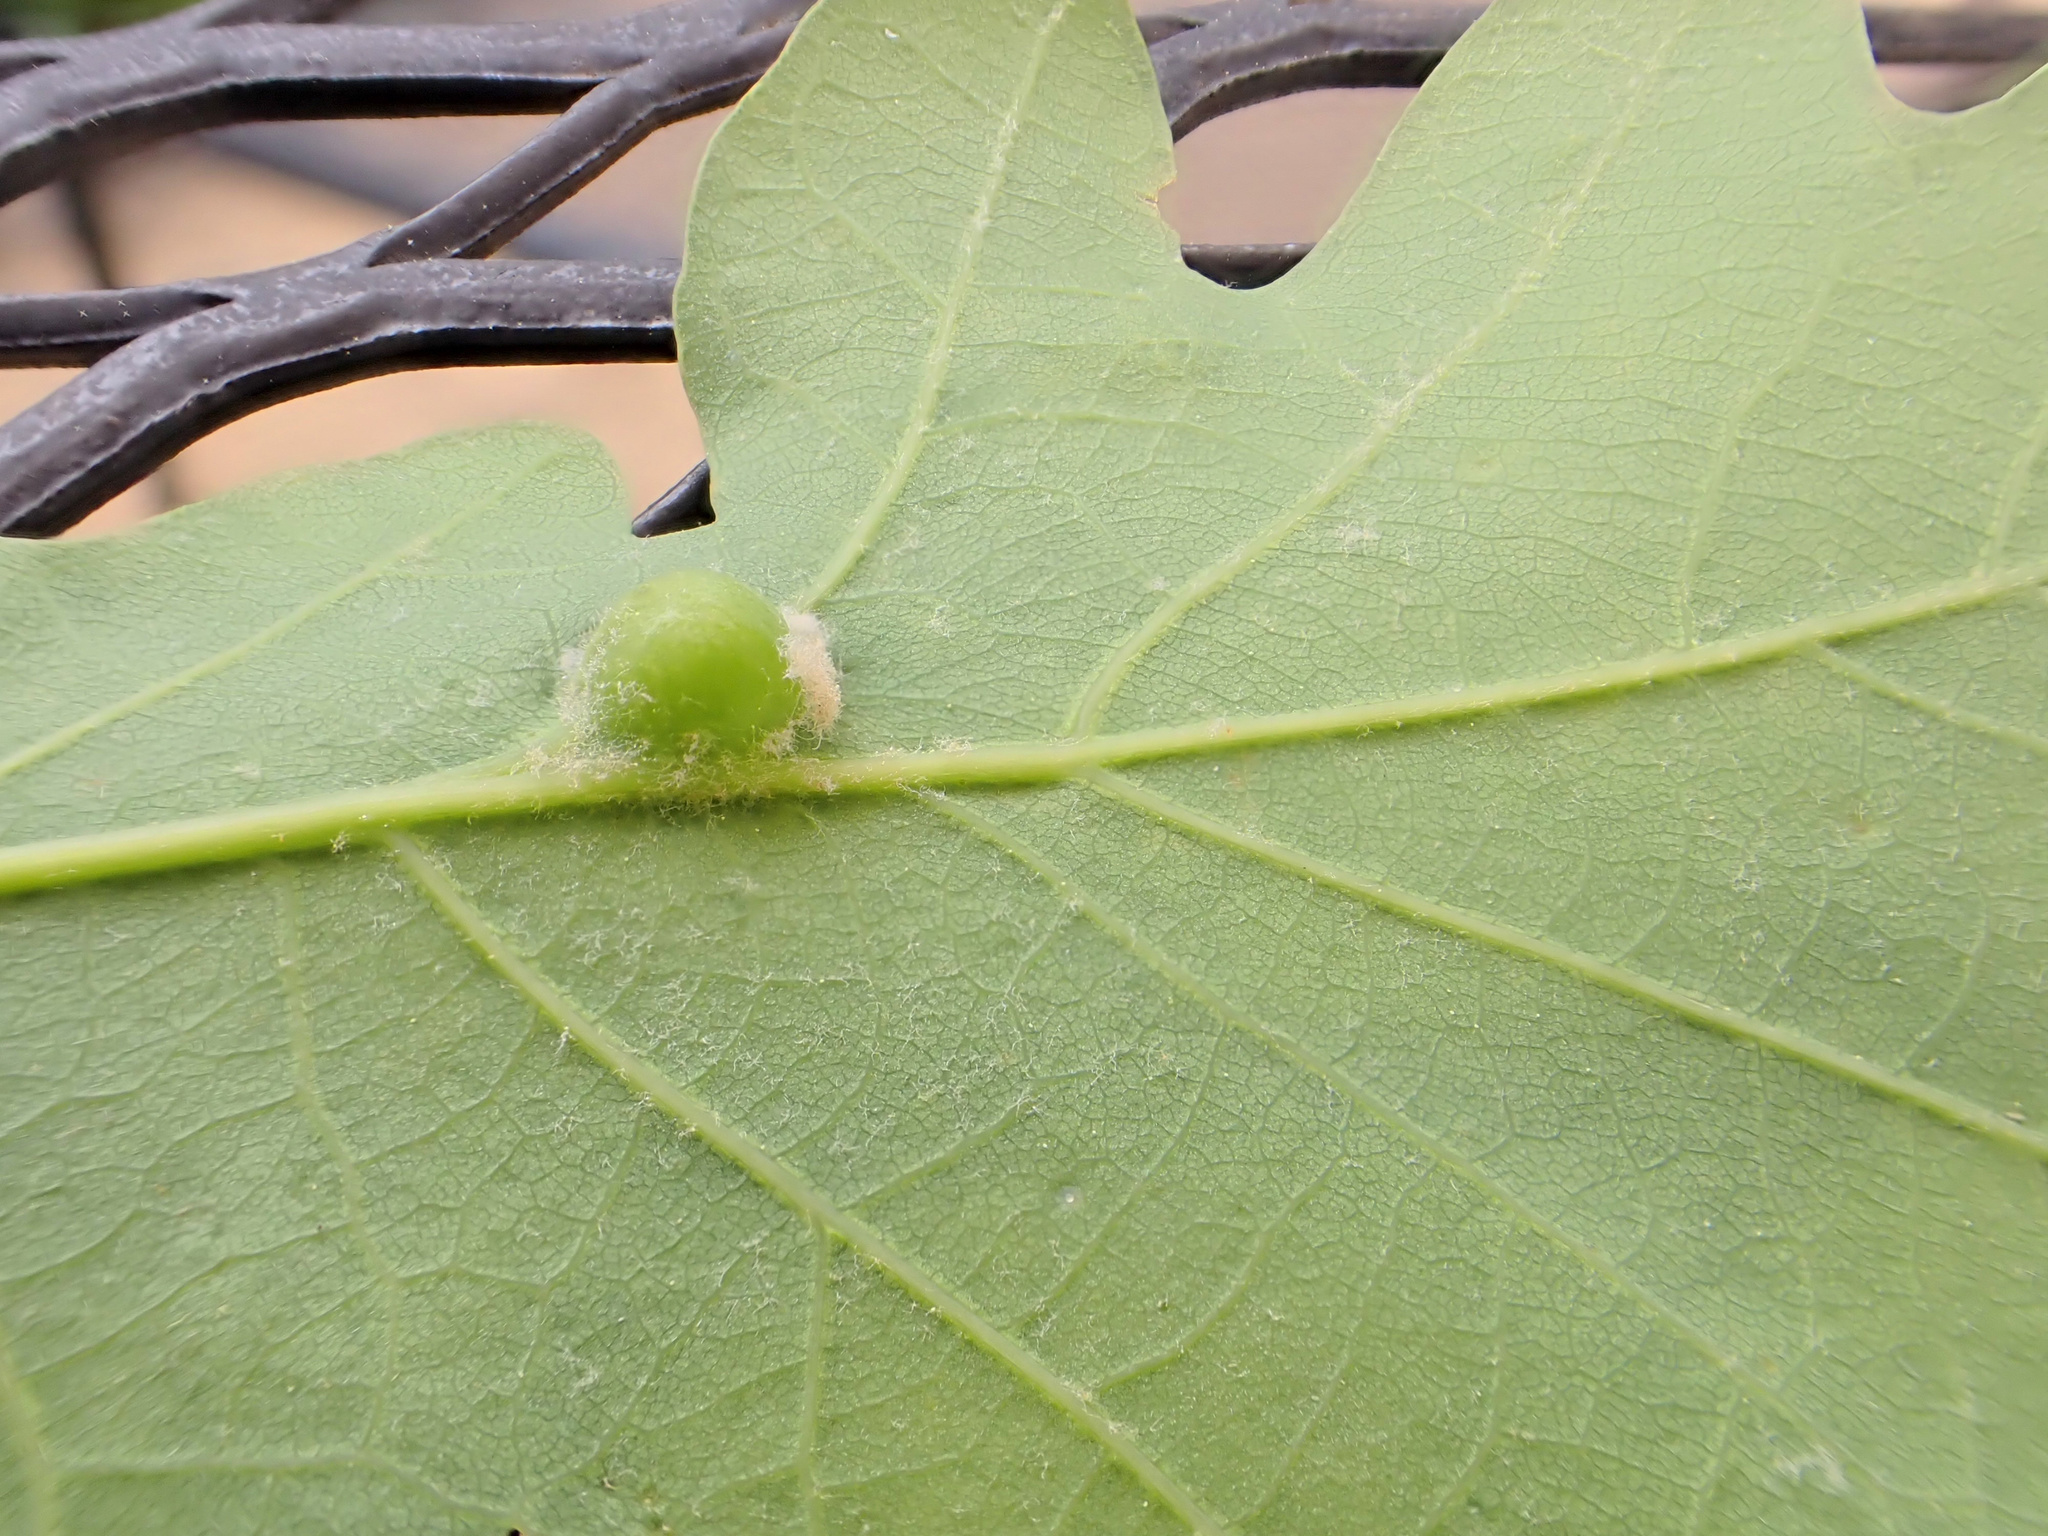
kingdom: Animalia
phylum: Arthropoda
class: Insecta
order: Hymenoptera
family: Cynipidae
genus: Andricus
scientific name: Andricus
